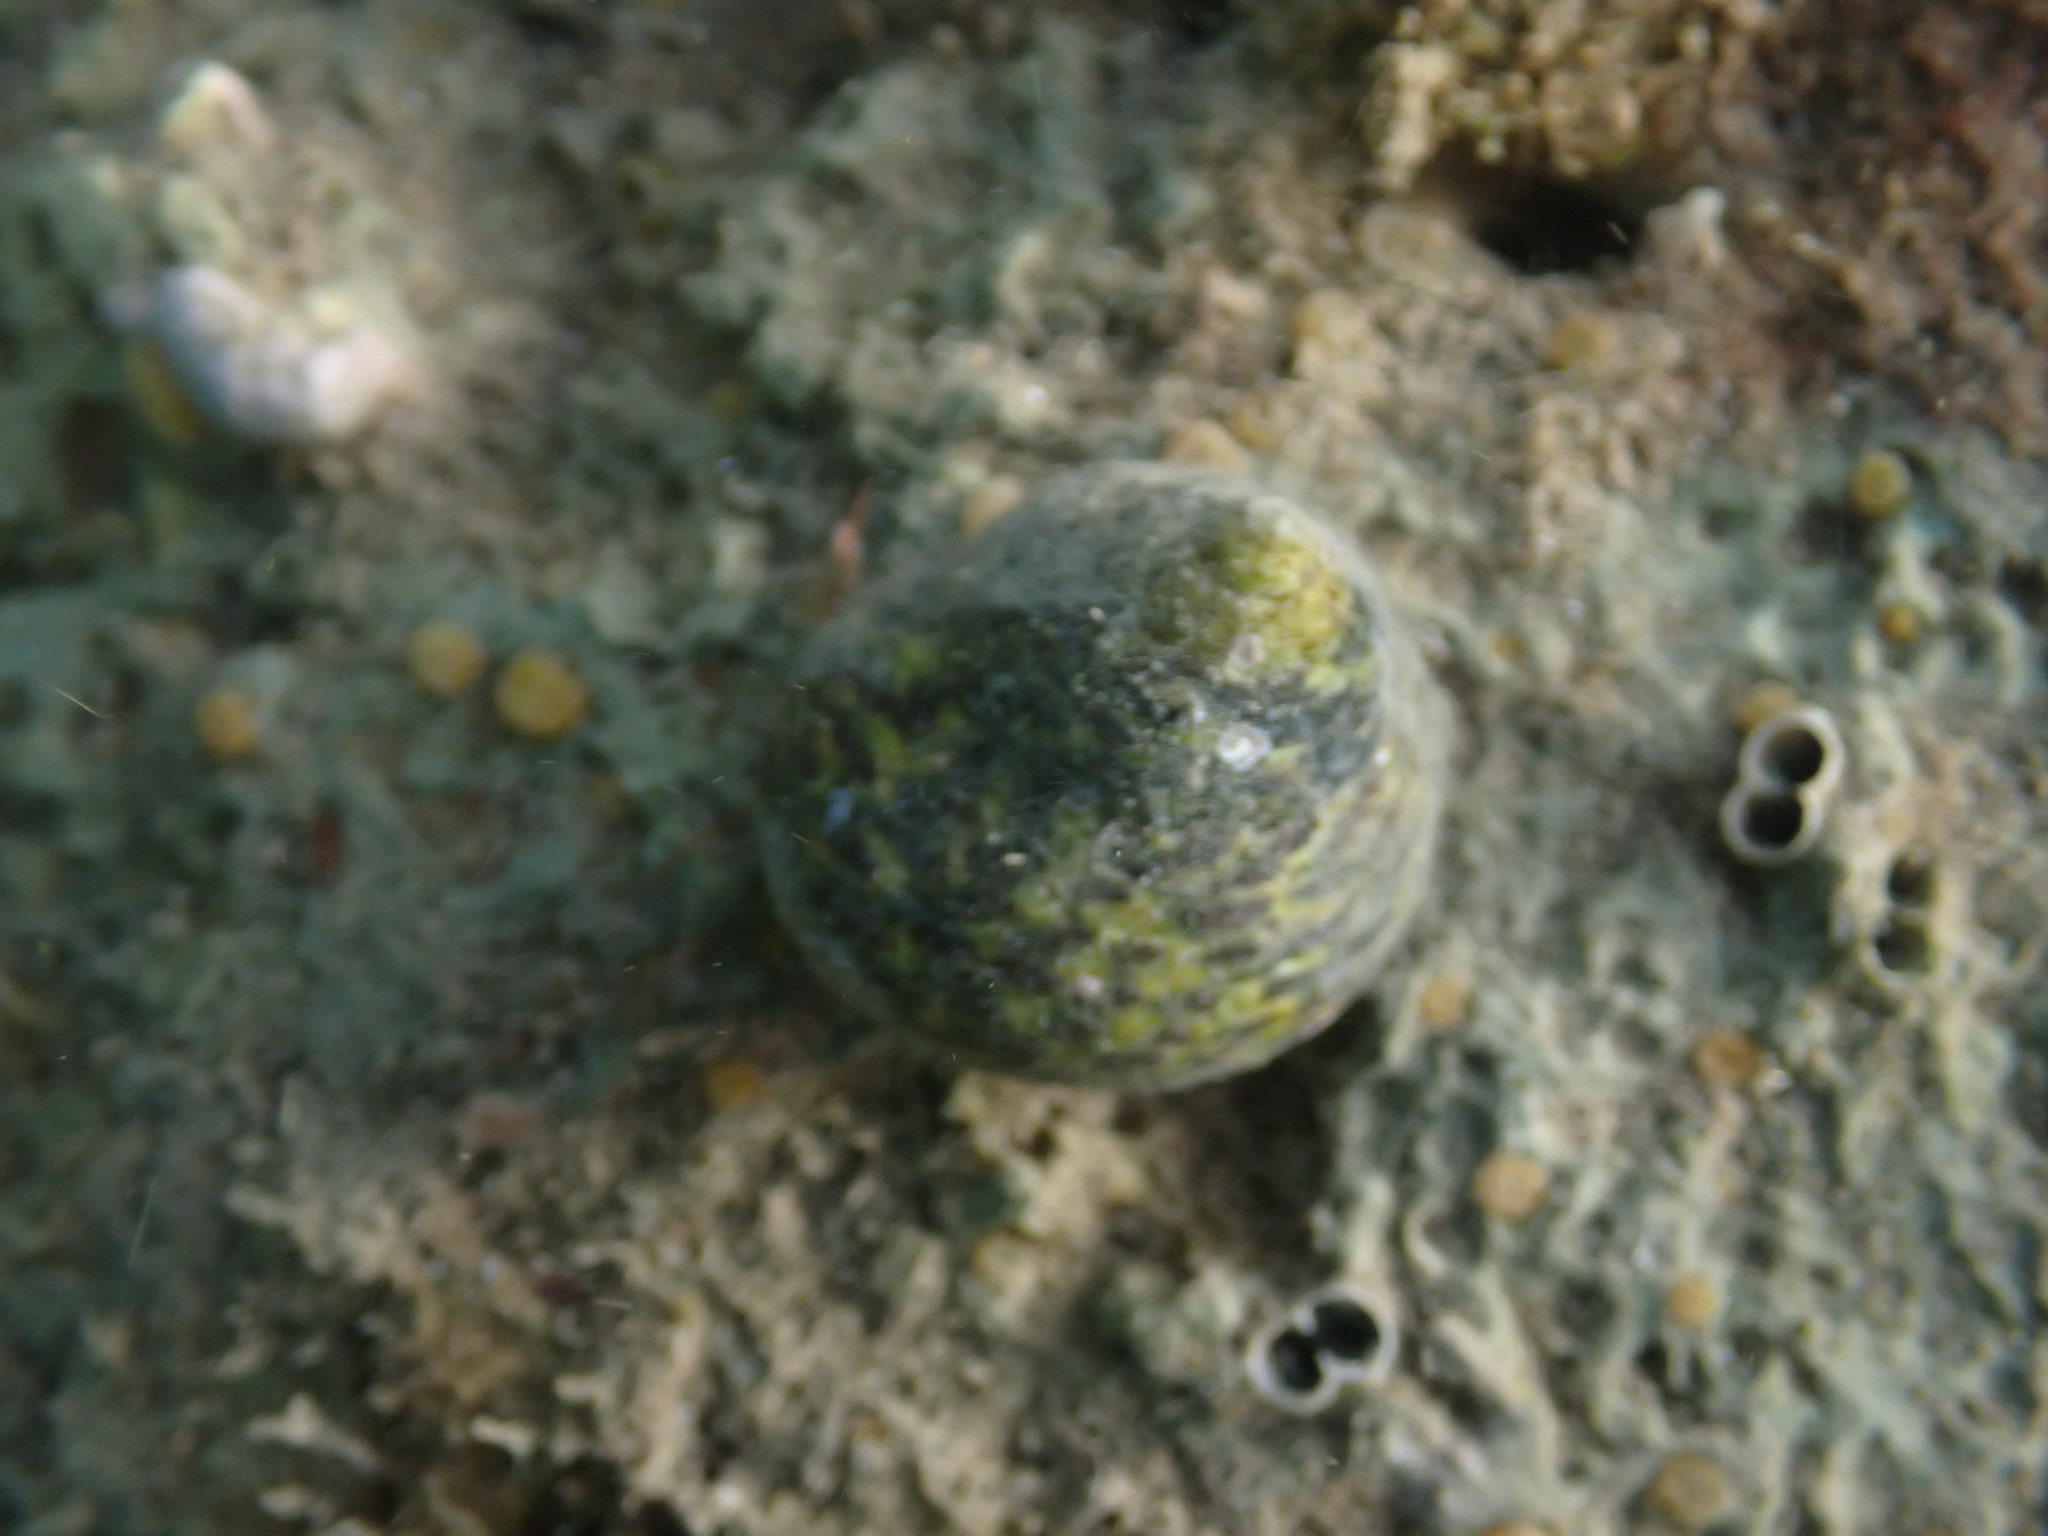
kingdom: Animalia
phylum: Mollusca
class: Gastropoda
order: Trochida
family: Trochidae
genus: Phorcus
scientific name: Phorcus turbinatus
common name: Turbinate monodont
